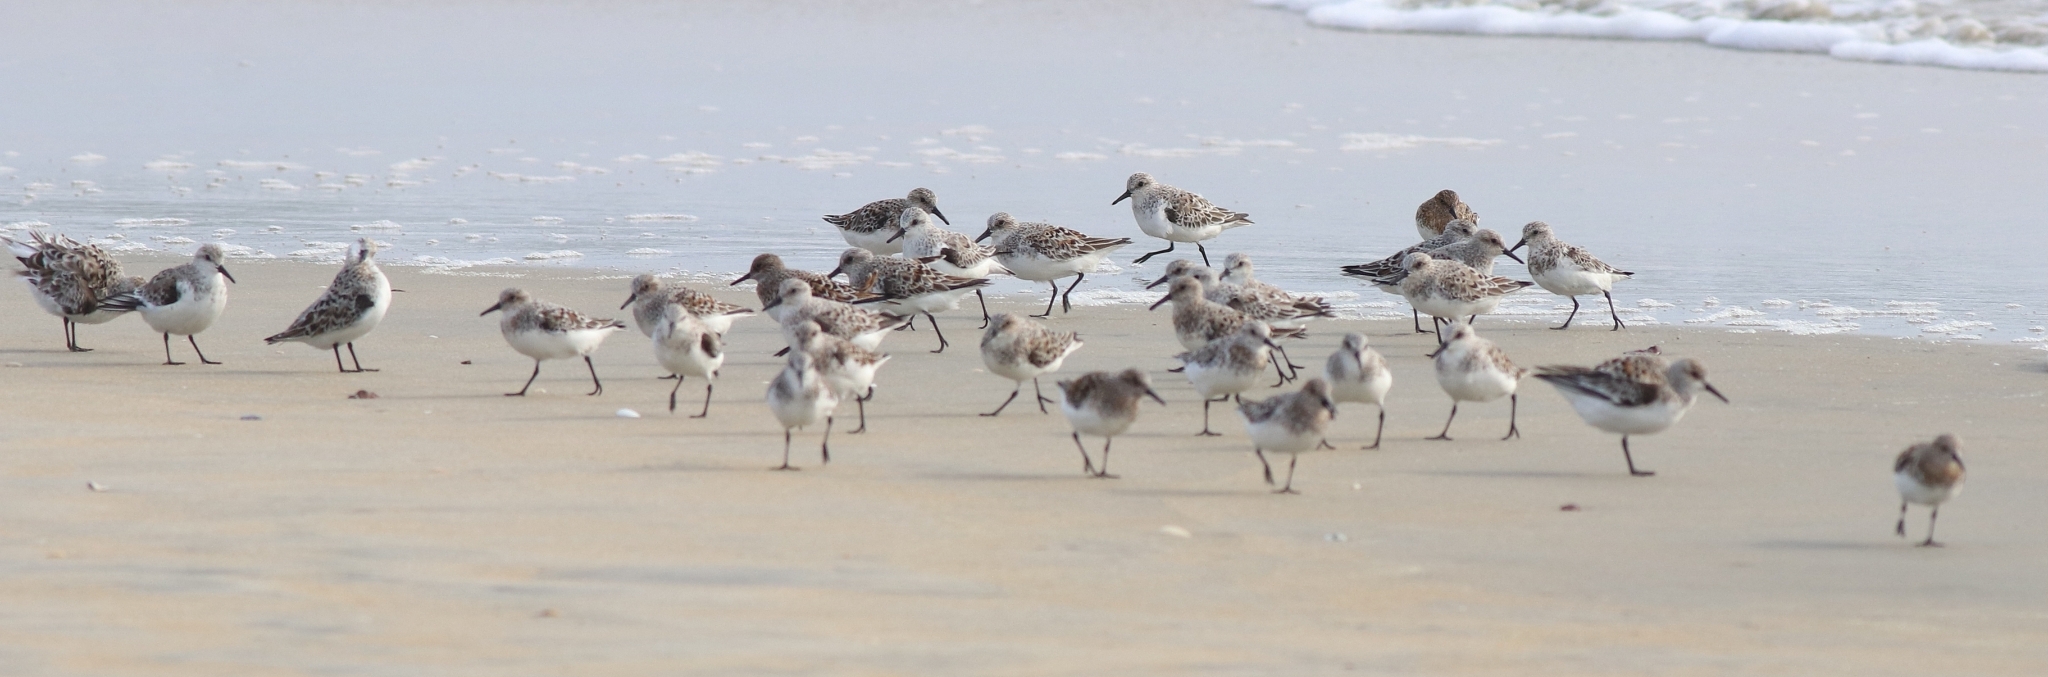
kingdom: Animalia
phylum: Chordata
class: Aves
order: Charadriiformes
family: Scolopacidae
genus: Calidris
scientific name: Calidris alba
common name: Sanderling
